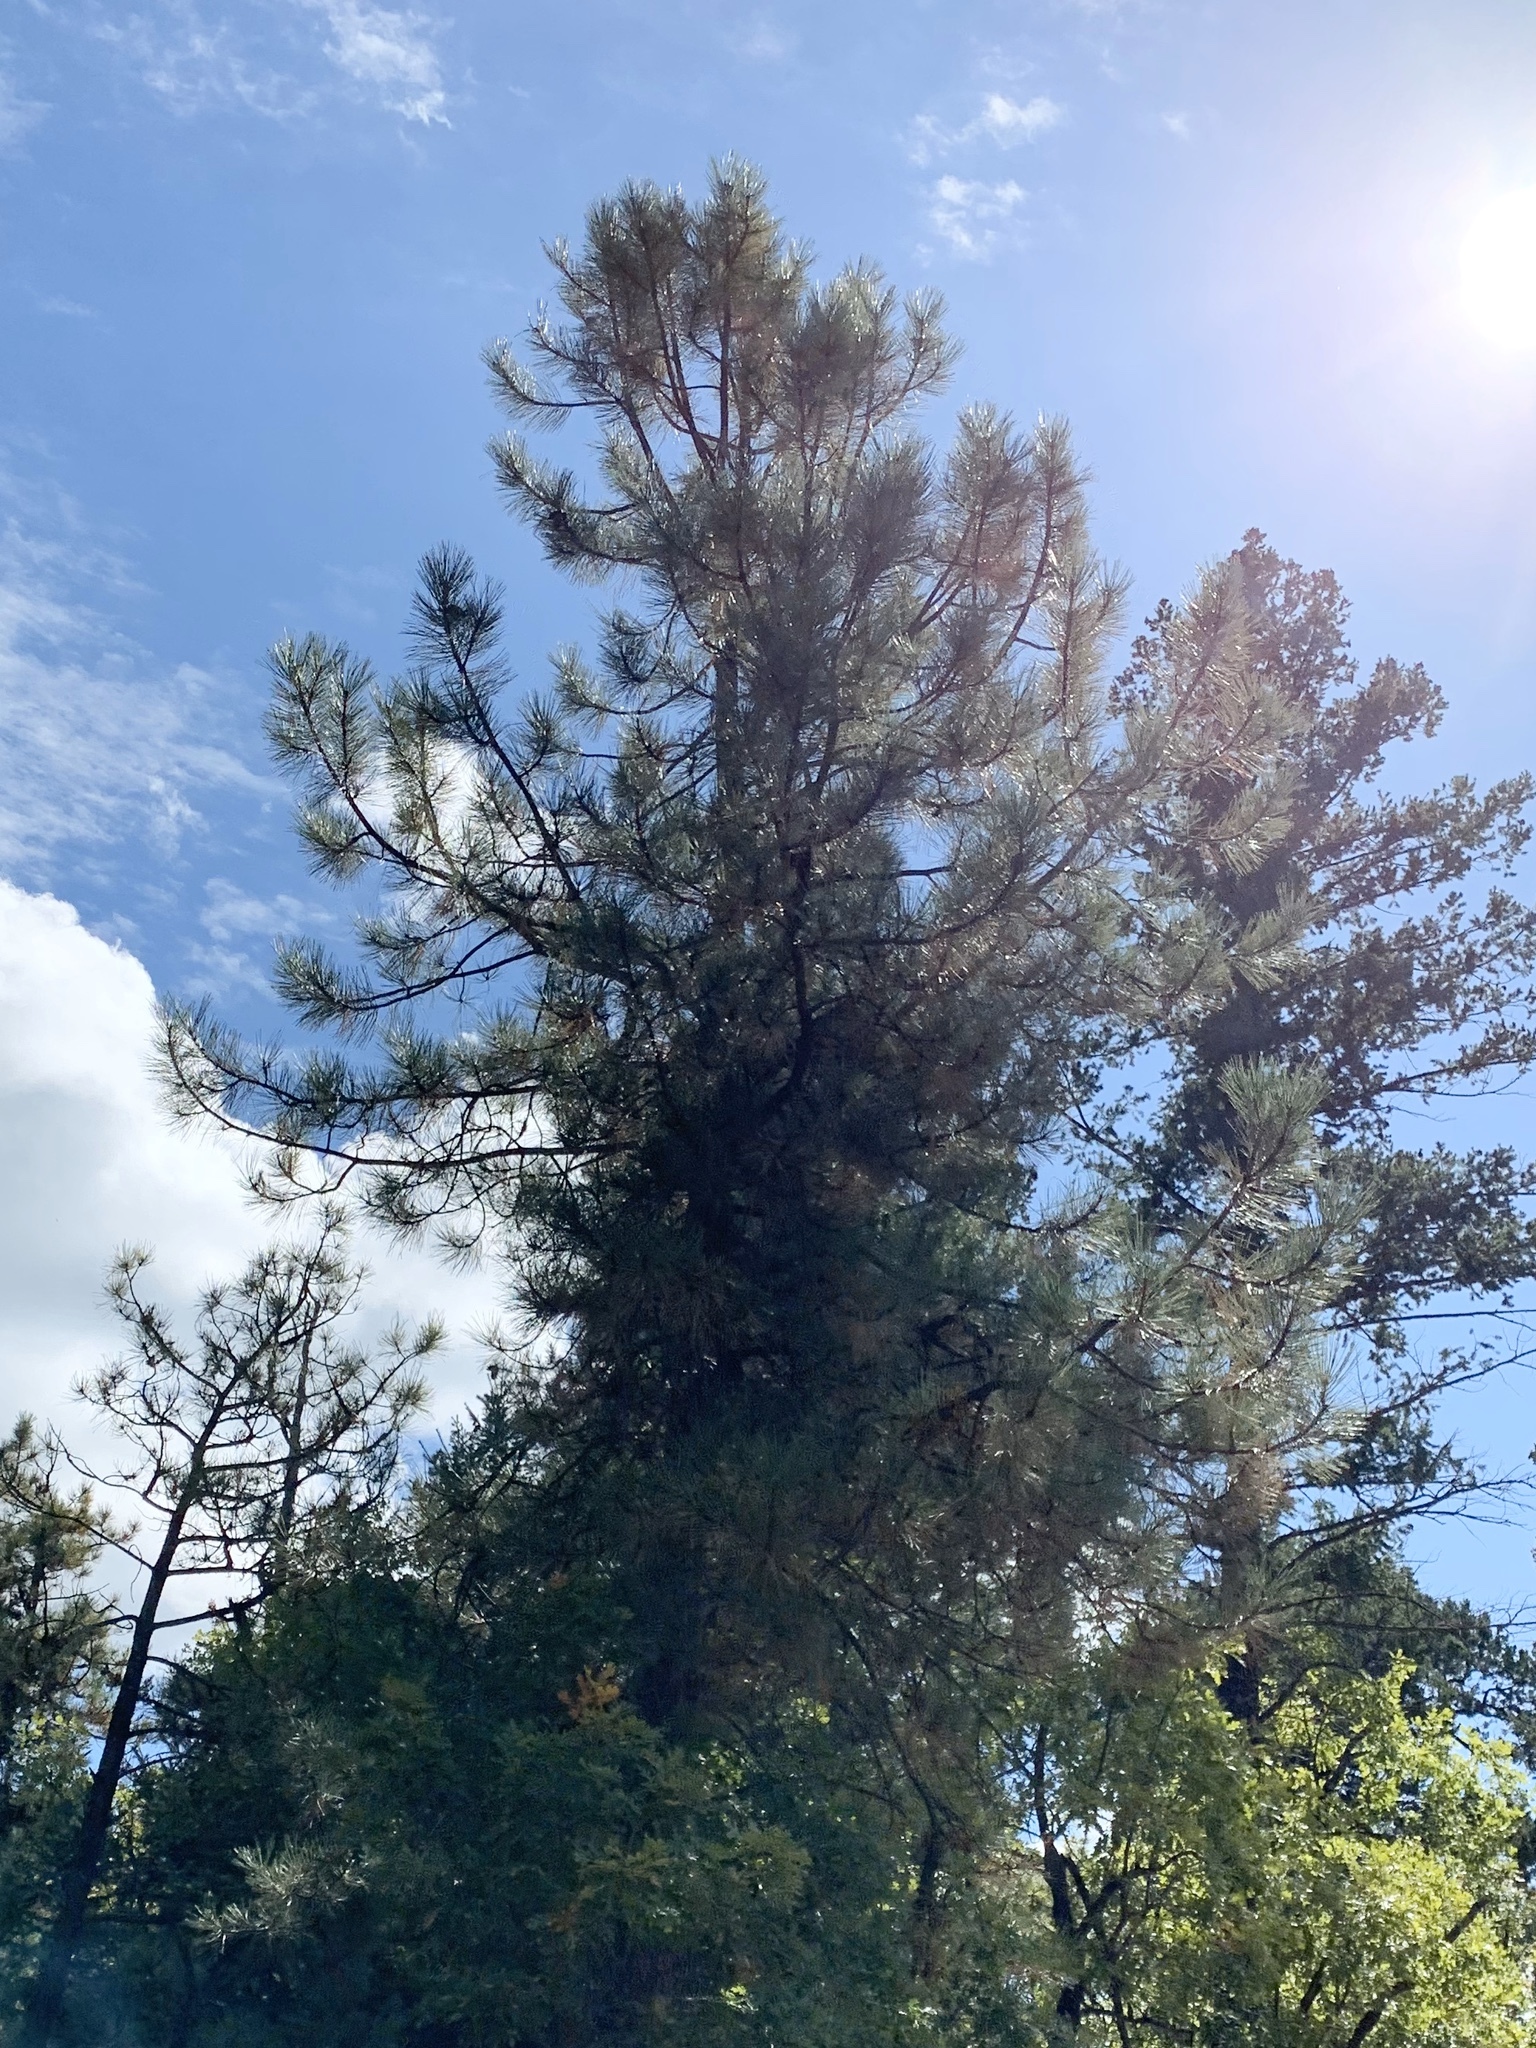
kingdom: Plantae
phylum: Tracheophyta
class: Pinopsida
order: Pinales
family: Pinaceae
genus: Pinus
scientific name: Pinus ponderosa
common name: Western yellow-pine
